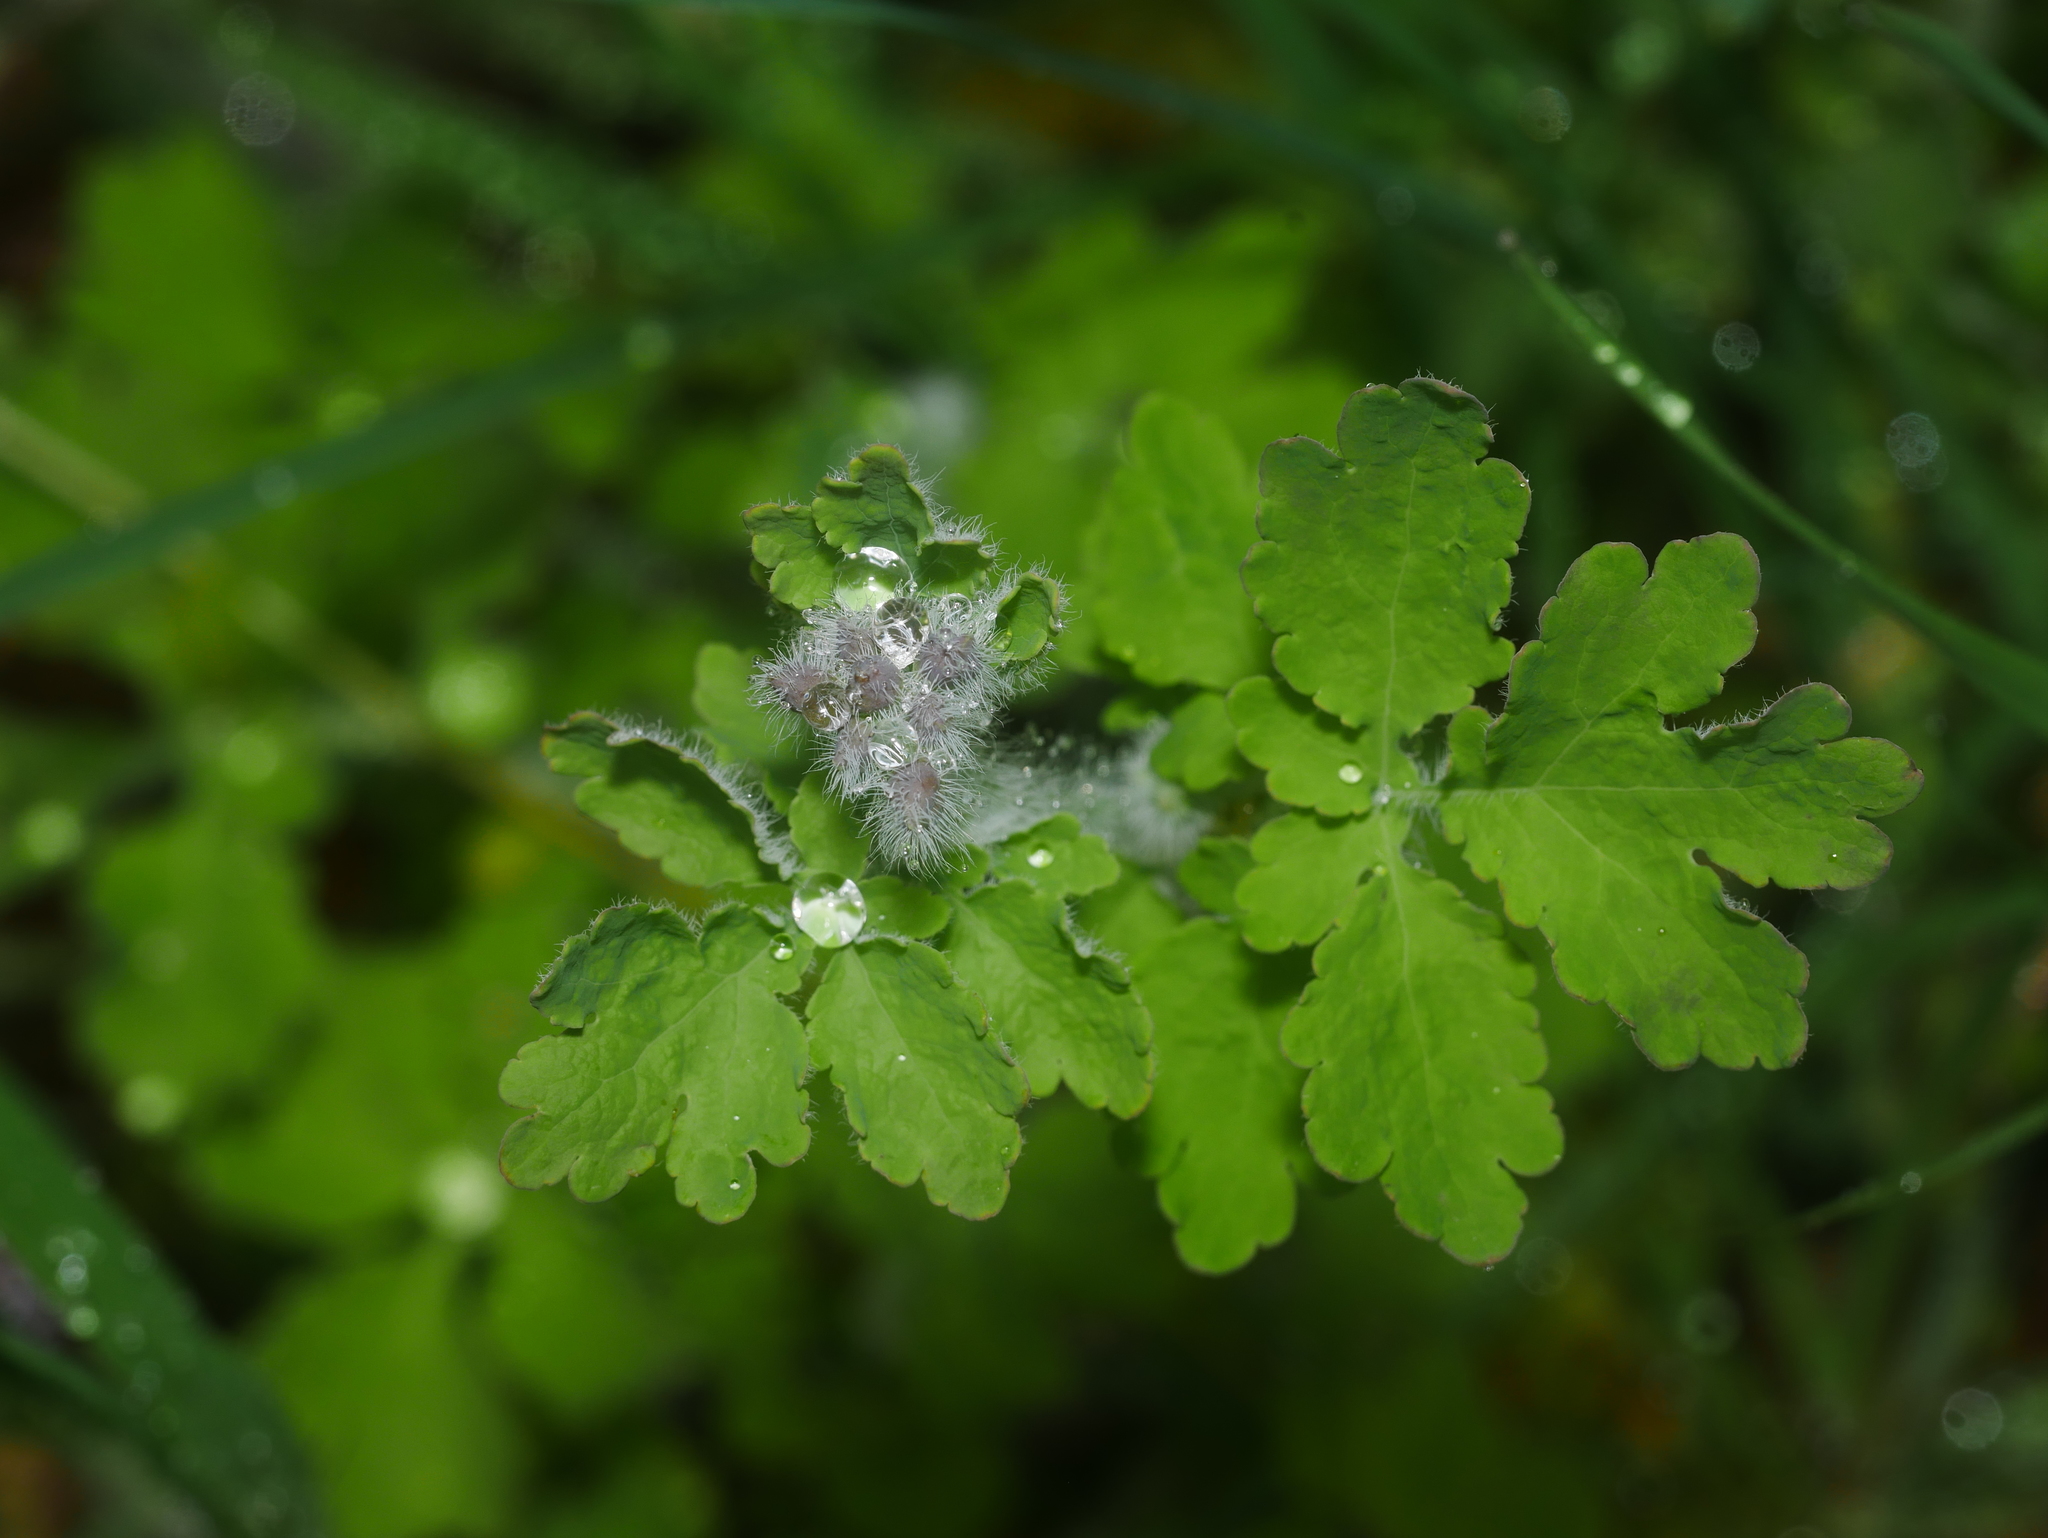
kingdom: Plantae
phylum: Tracheophyta
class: Magnoliopsida
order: Ranunculales
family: Papaveraceae
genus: Chelidonium
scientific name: Chelidonium majus
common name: Greater celandine
